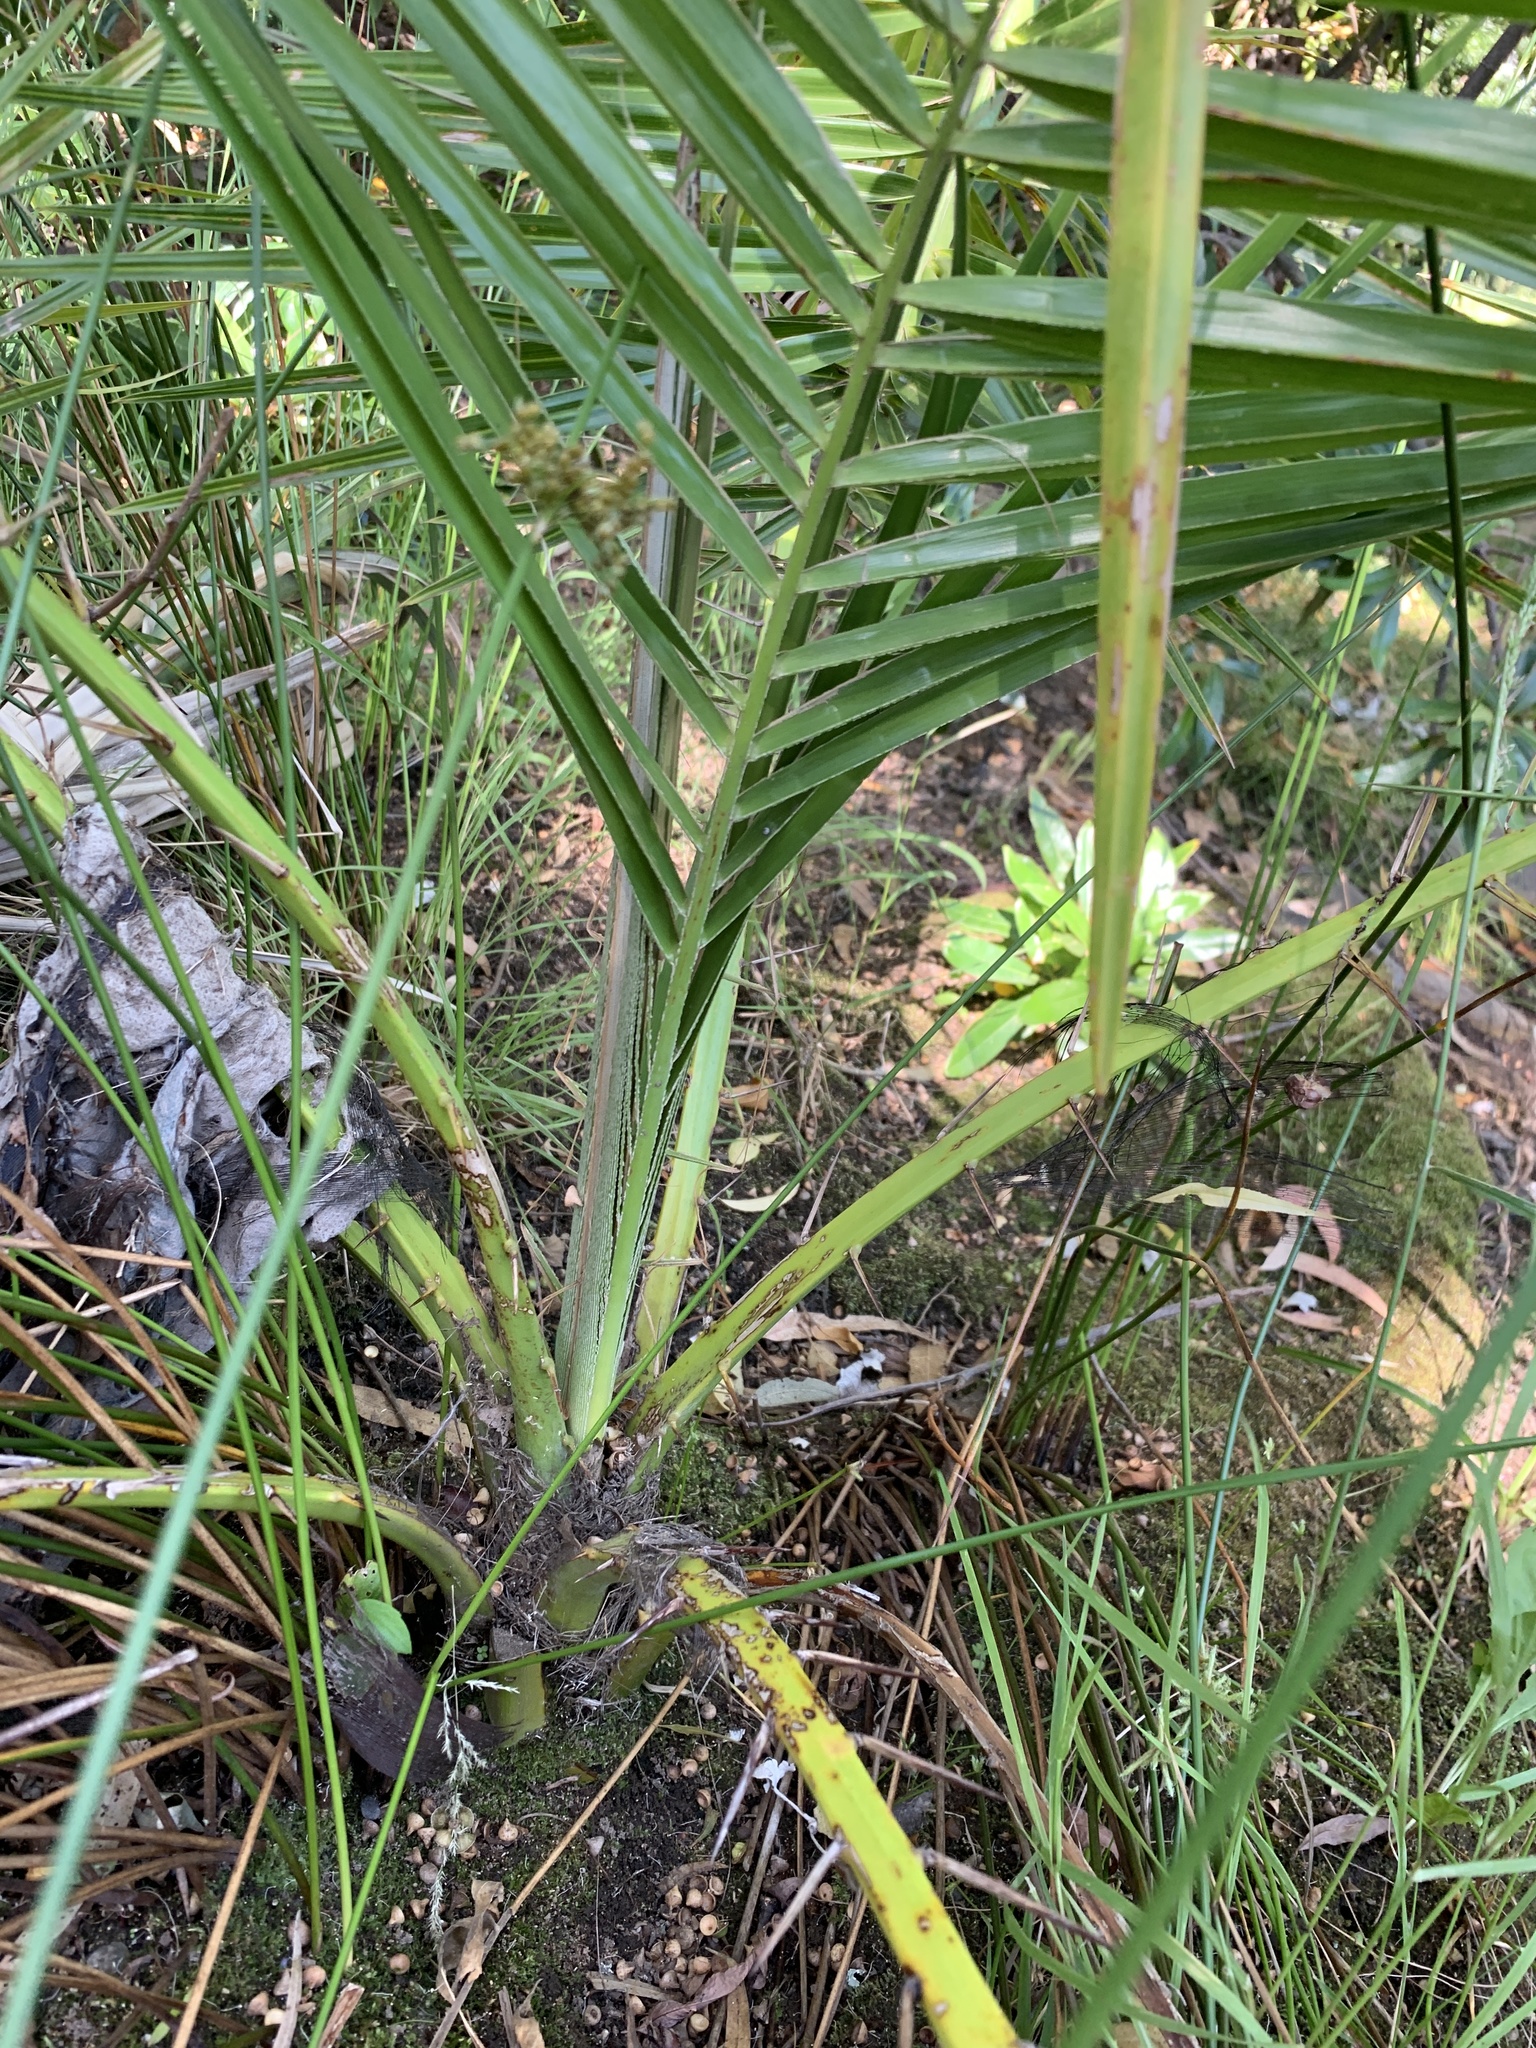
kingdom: Plantae
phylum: Tracheophyta
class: Liliopsida
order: Arecales
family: Arecaceae
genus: Phoenix
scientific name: Phoenix canariensis
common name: Canary island date palm
